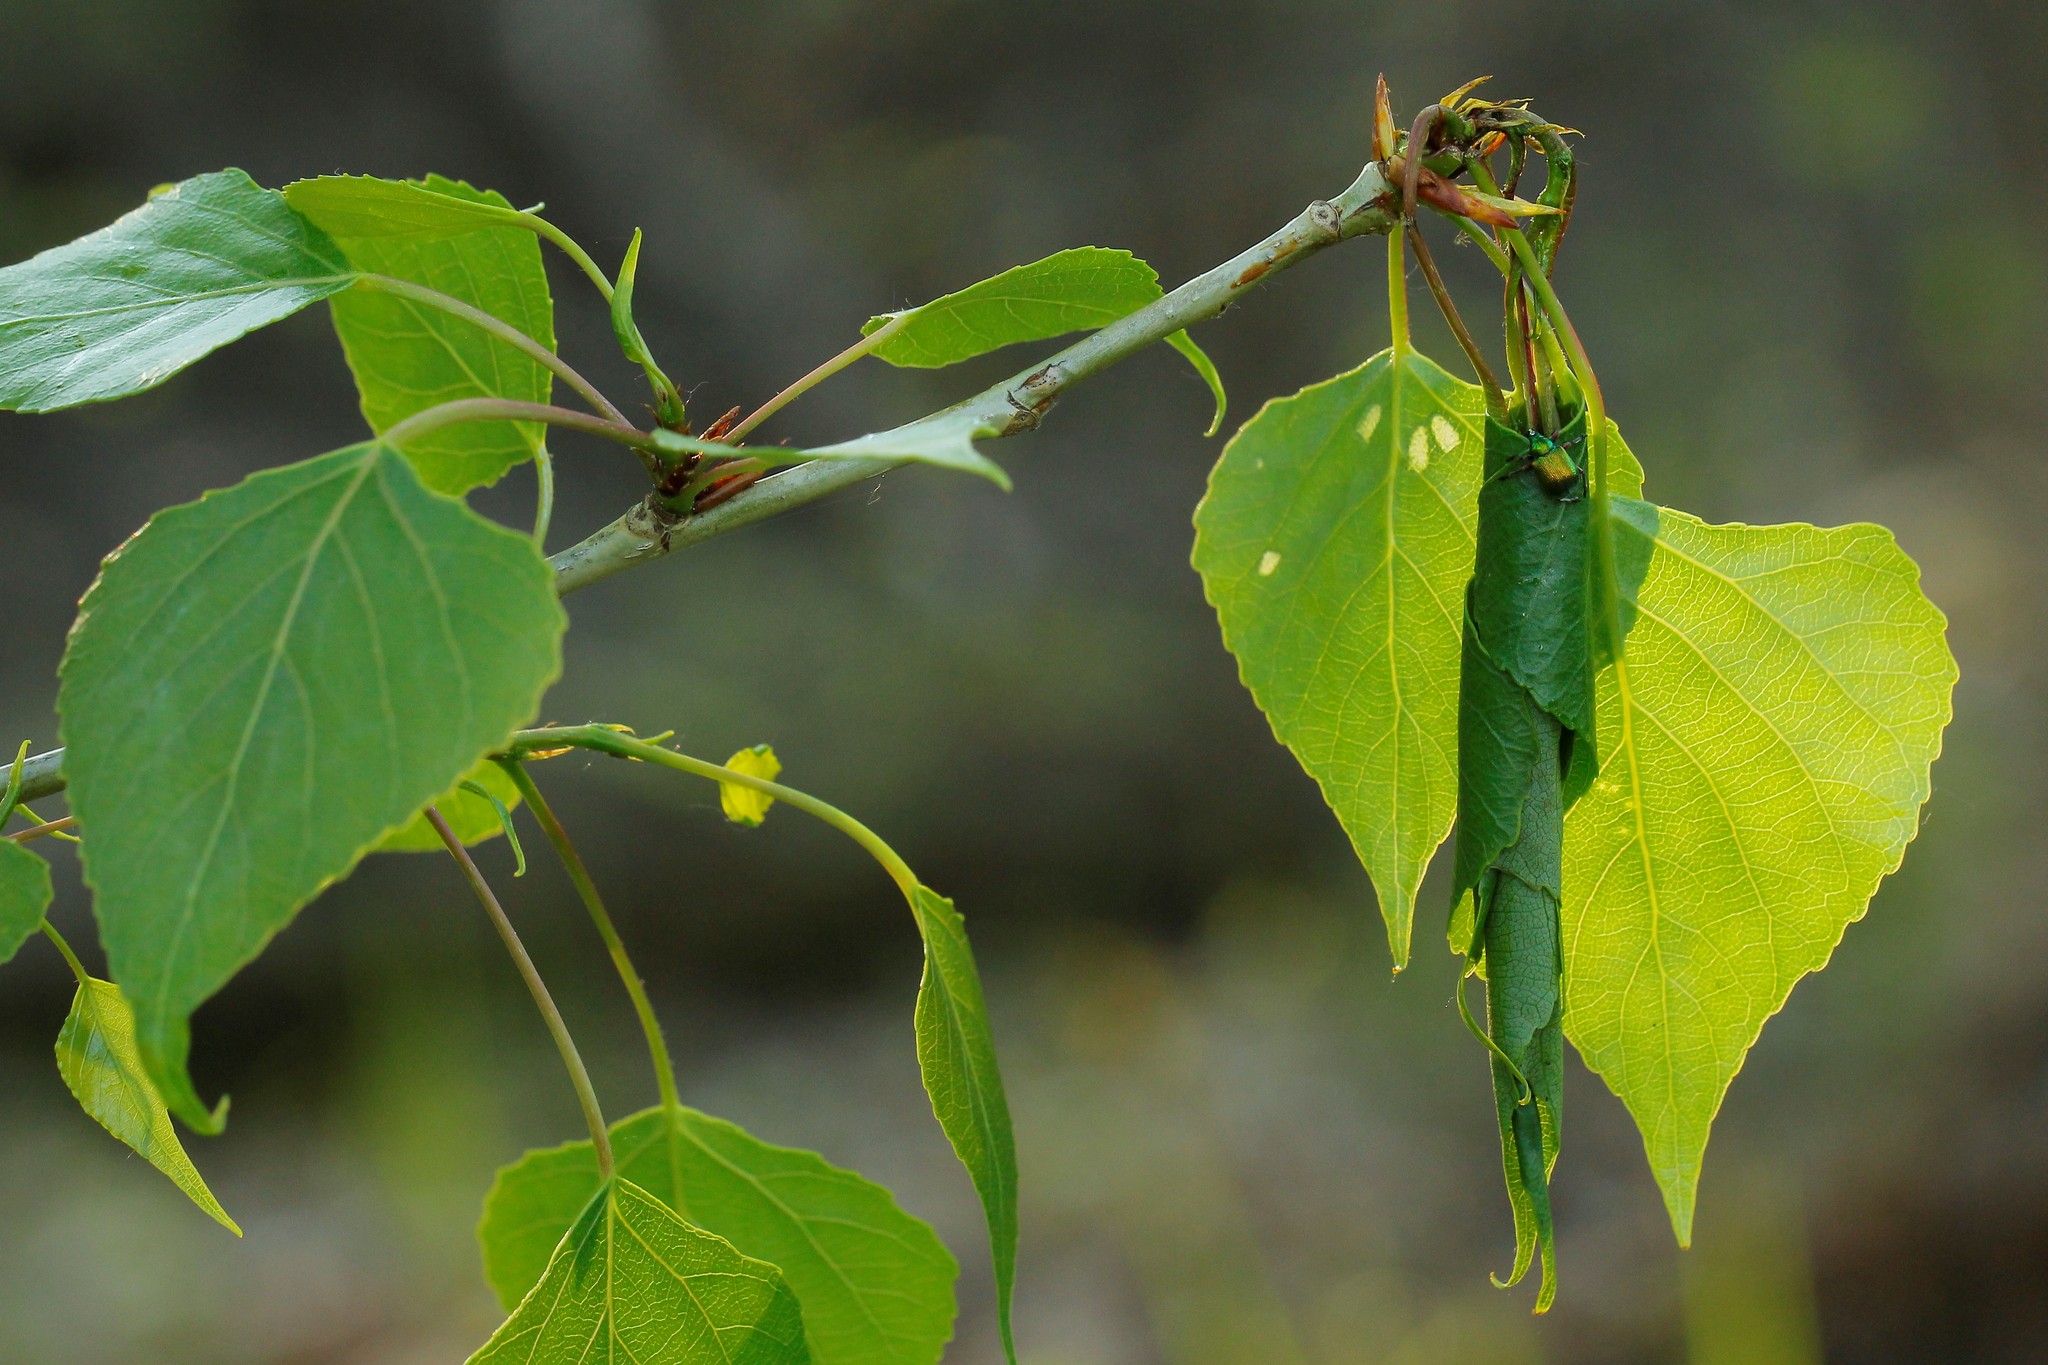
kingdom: Animalia
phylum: Arthropoda
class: Insecta
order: Coleoptera
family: Attelabidae
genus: Byctiscus
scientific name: Byctiscus betulae
